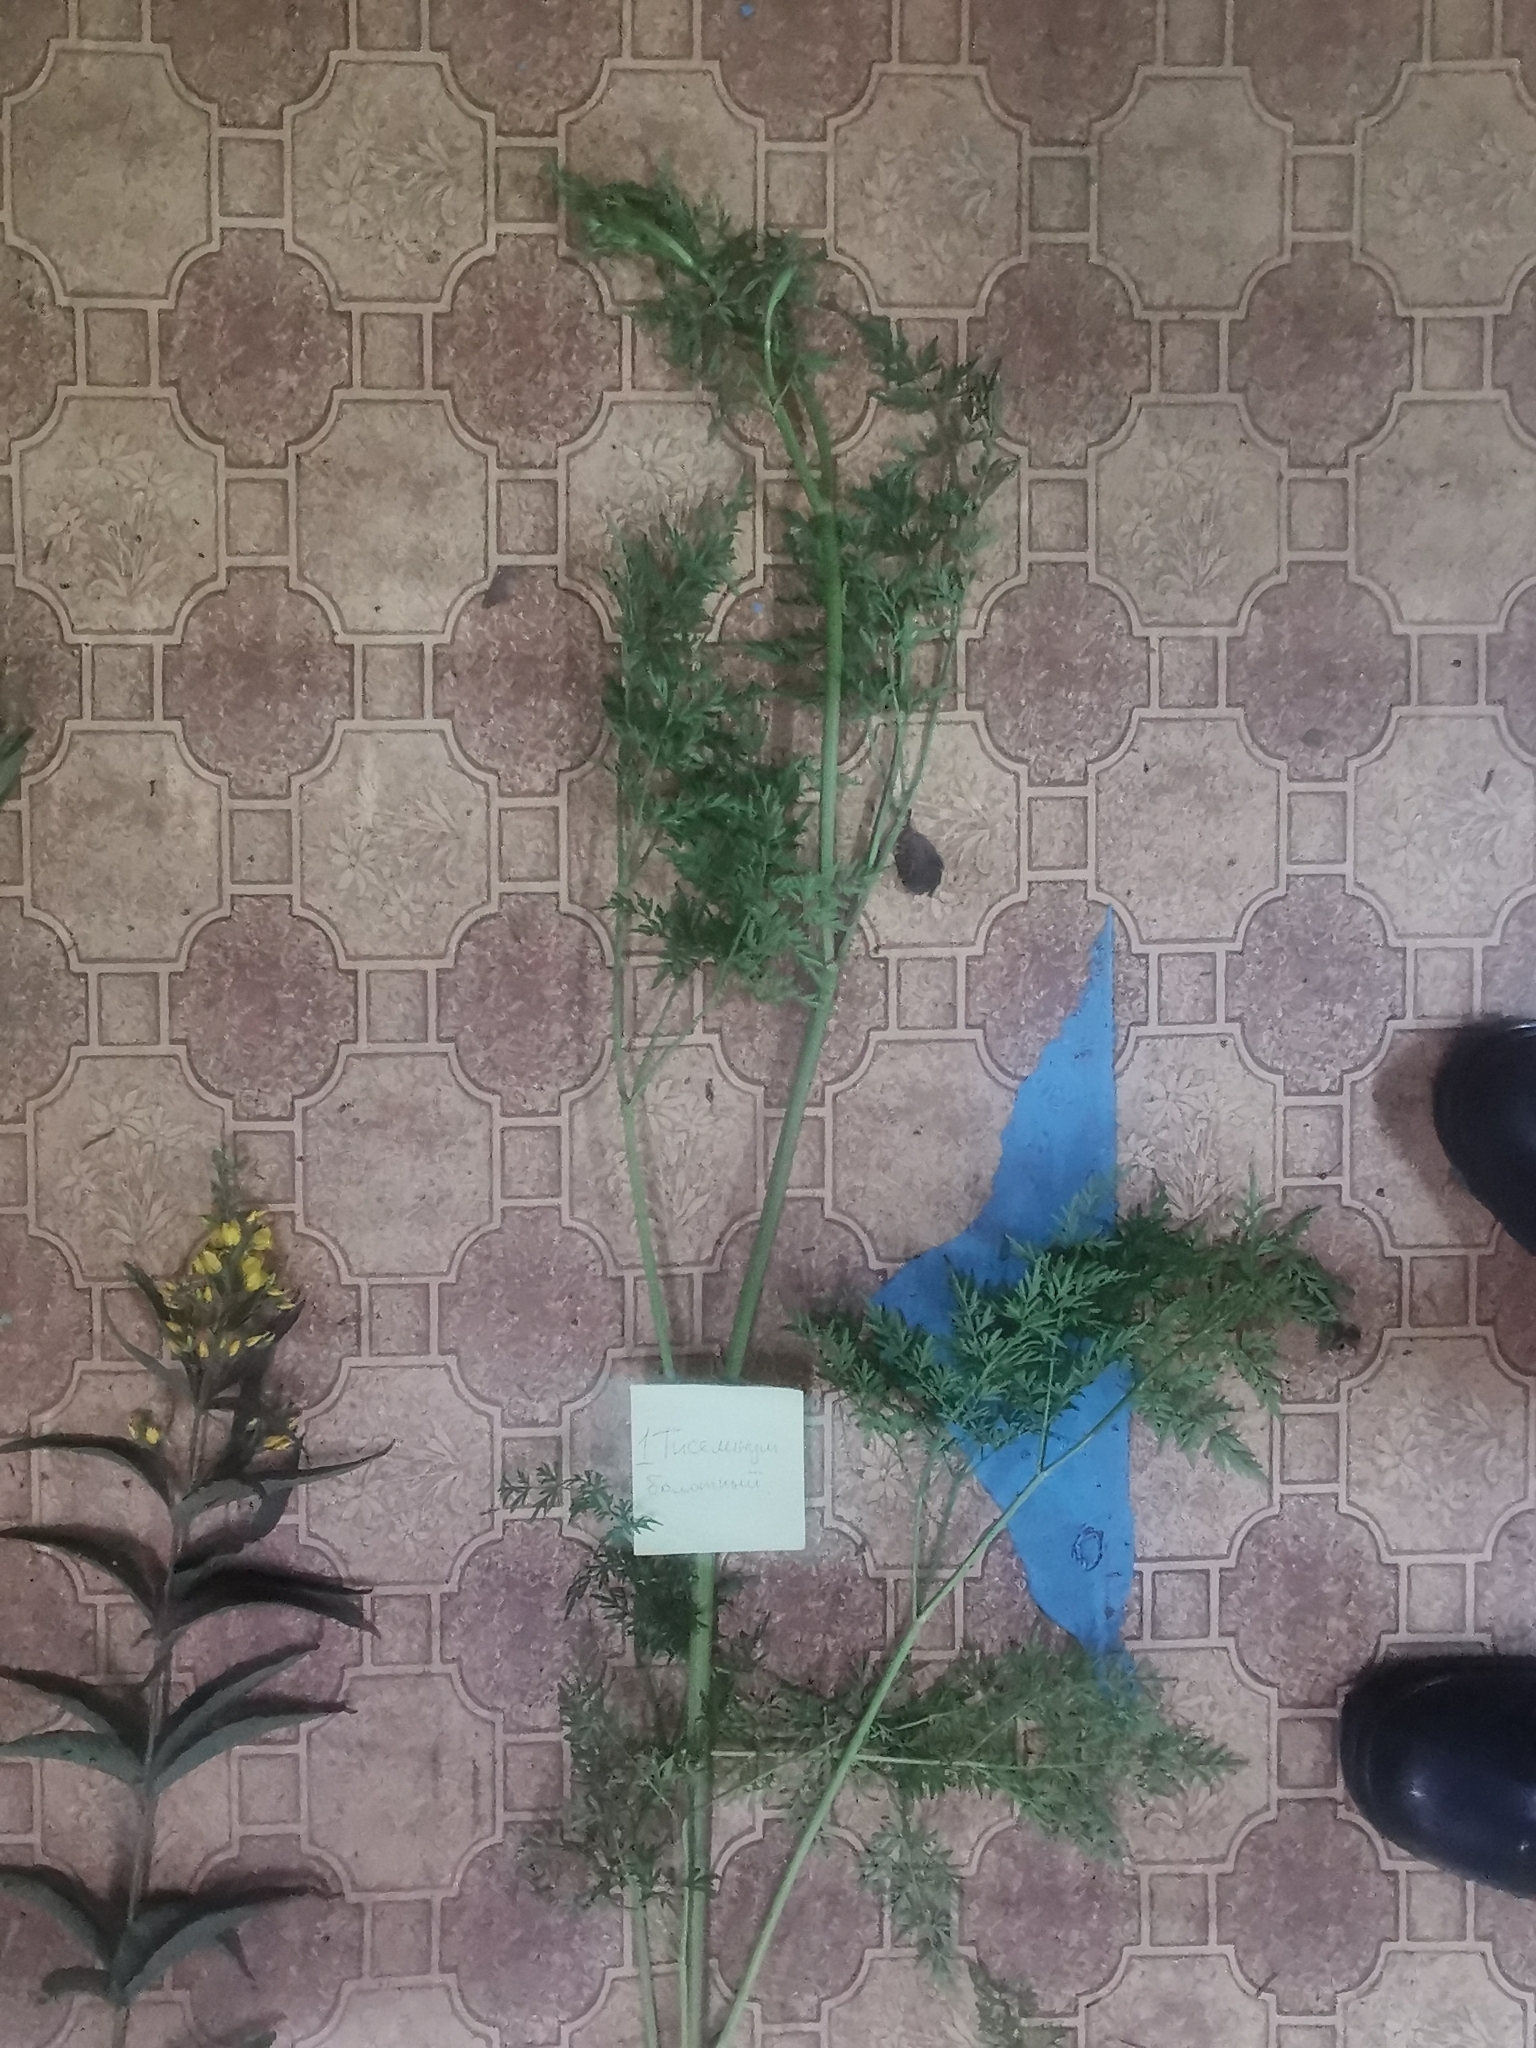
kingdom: Plantae
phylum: Tracheophyta
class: Magnoliopsida
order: Apiales
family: Apiaceae
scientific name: Apiaceae
